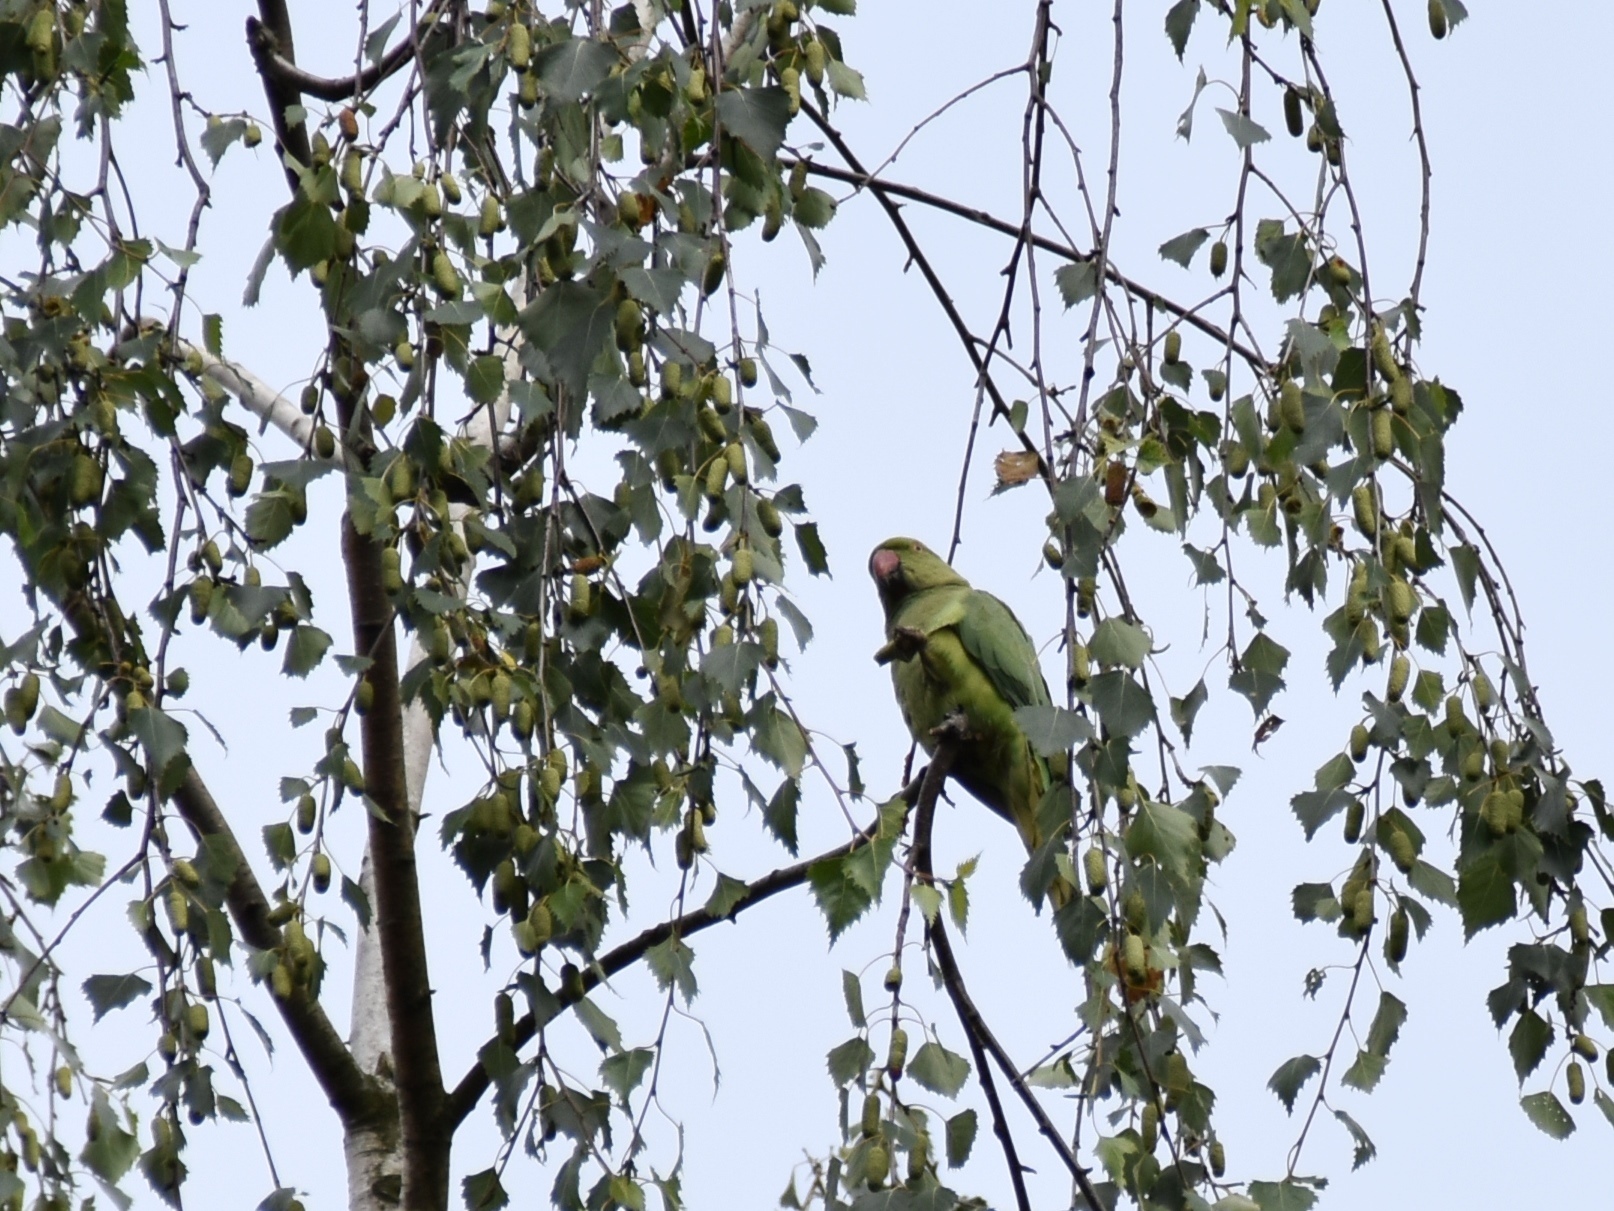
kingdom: Animalia
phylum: Chordata
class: Aves
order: Psittaciformes
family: Psittacidae
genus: Psittacula
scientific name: Psittacula krameri
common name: Rose-ringed parakeet
